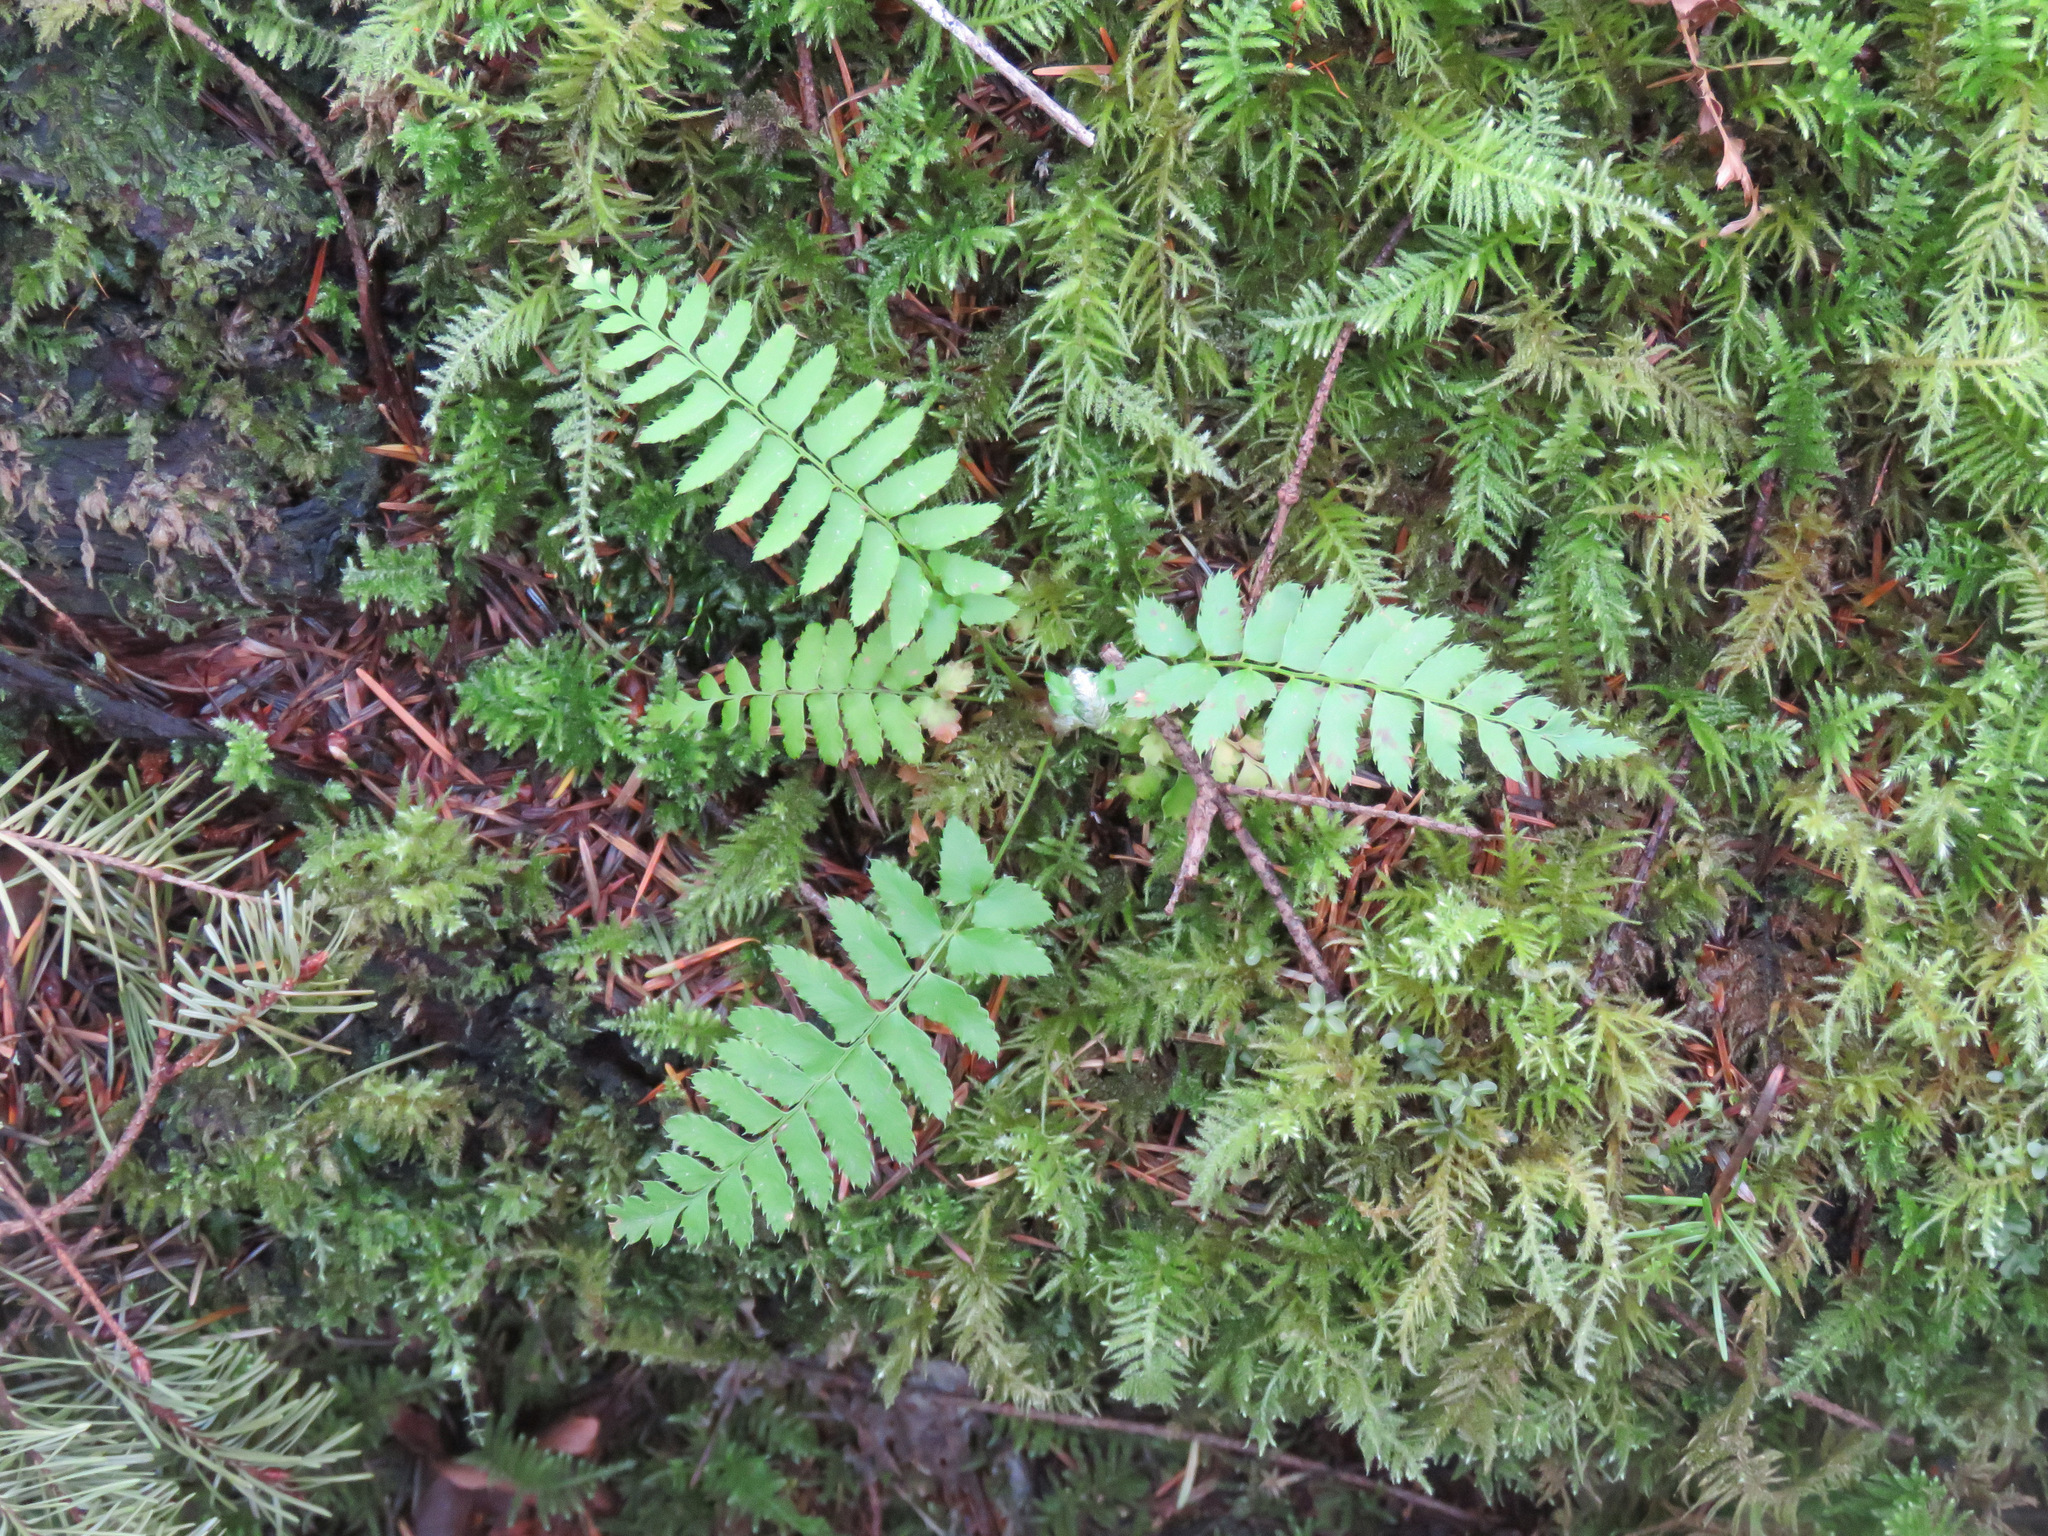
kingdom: Plantae
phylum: Tracheophyta
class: Polypodiopsida
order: Polypodiales
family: Dryopteridaceae
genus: Polystichum
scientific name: Polystichum munitum
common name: Western sword-fern
